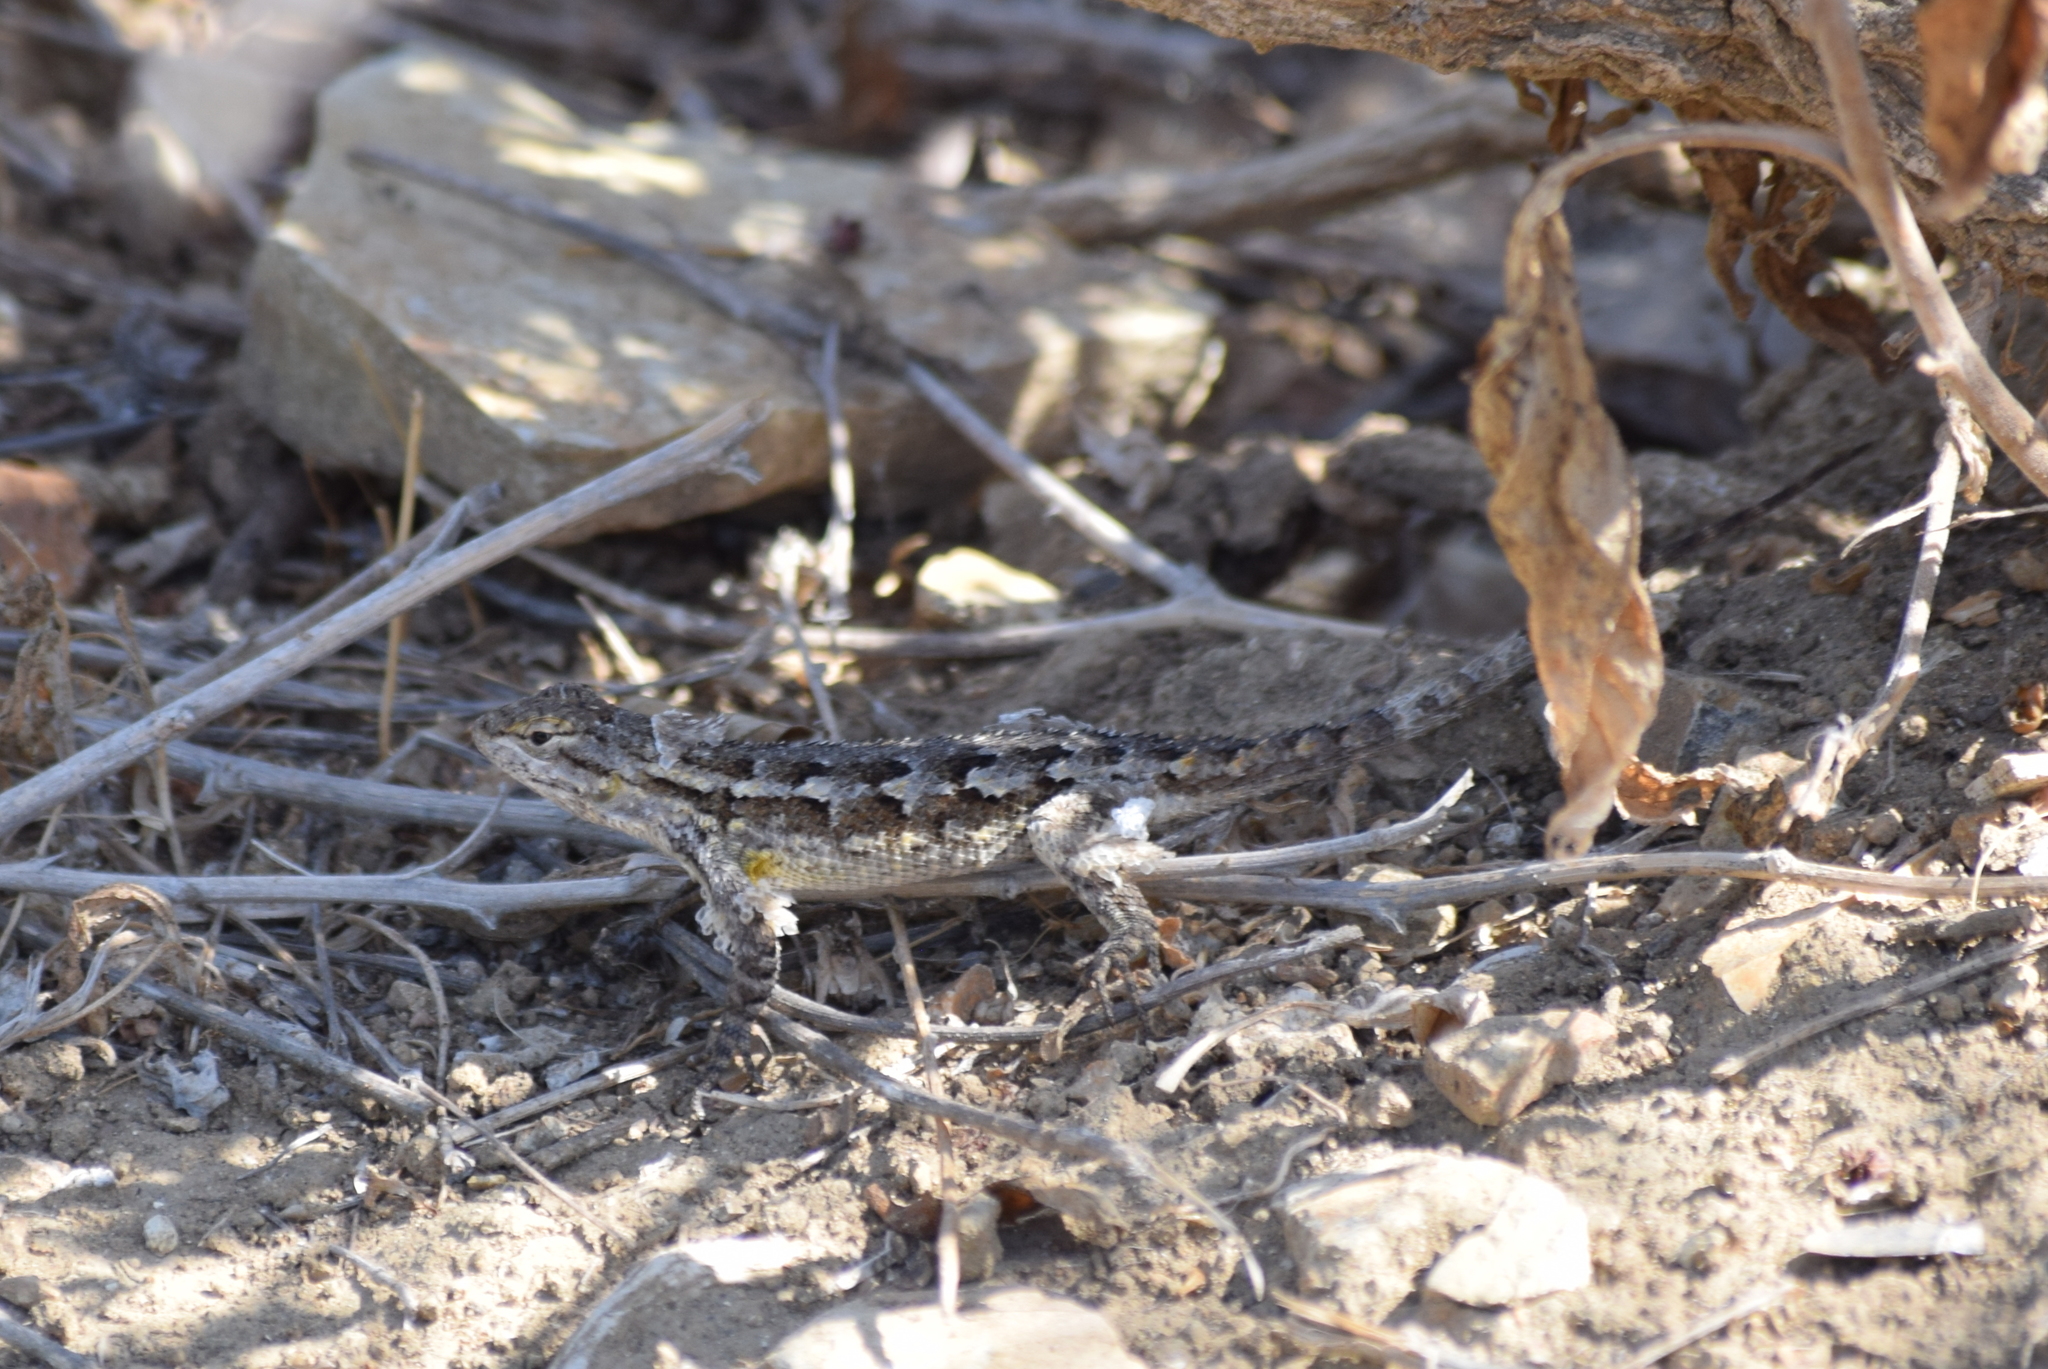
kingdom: Animalia
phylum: Chordata
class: Squamata
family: Phrynosomatidae
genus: Sceloporus
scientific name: Sceloporus occidentalis
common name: Western fence lizard
